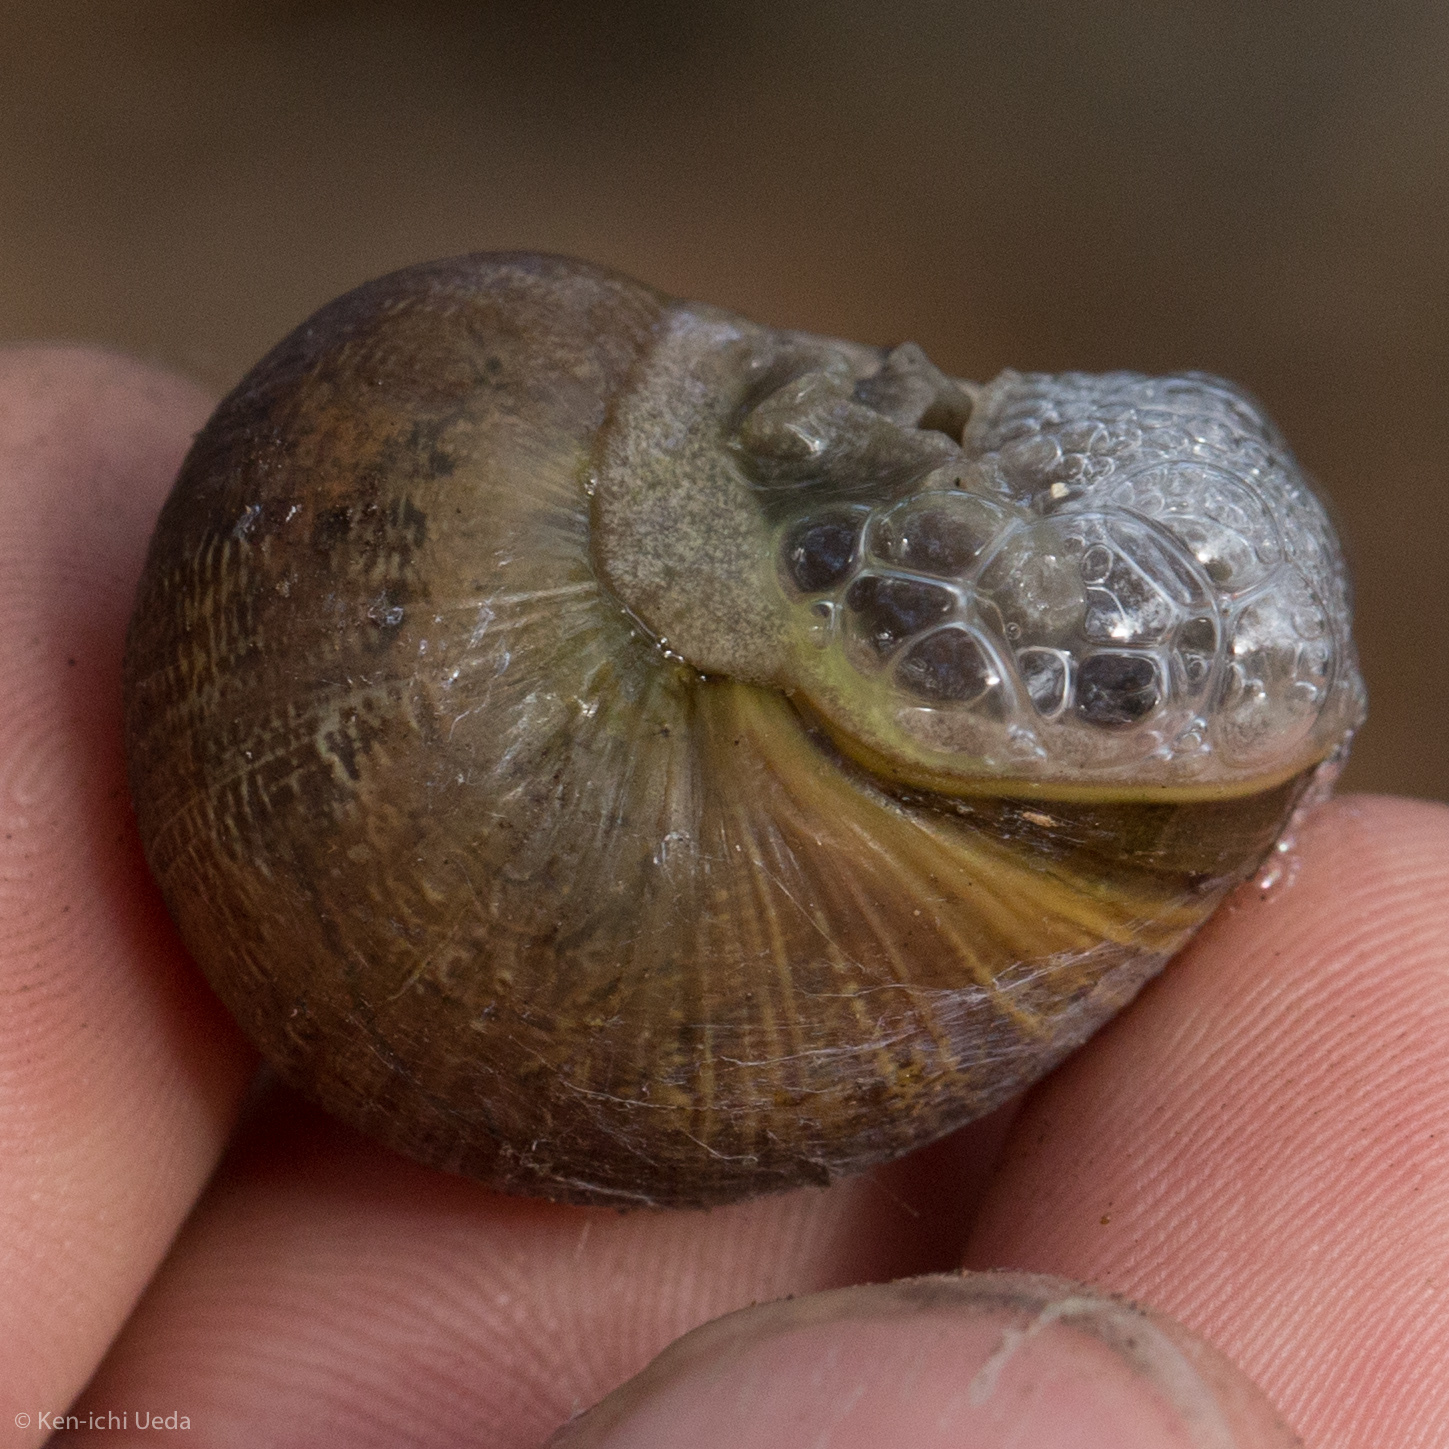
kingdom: Animalia
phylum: Mollusca
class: Gastropoda
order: Stylommatophora
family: Helicidae
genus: Cornu
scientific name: Cornu aspersum
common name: Brown garden snail
